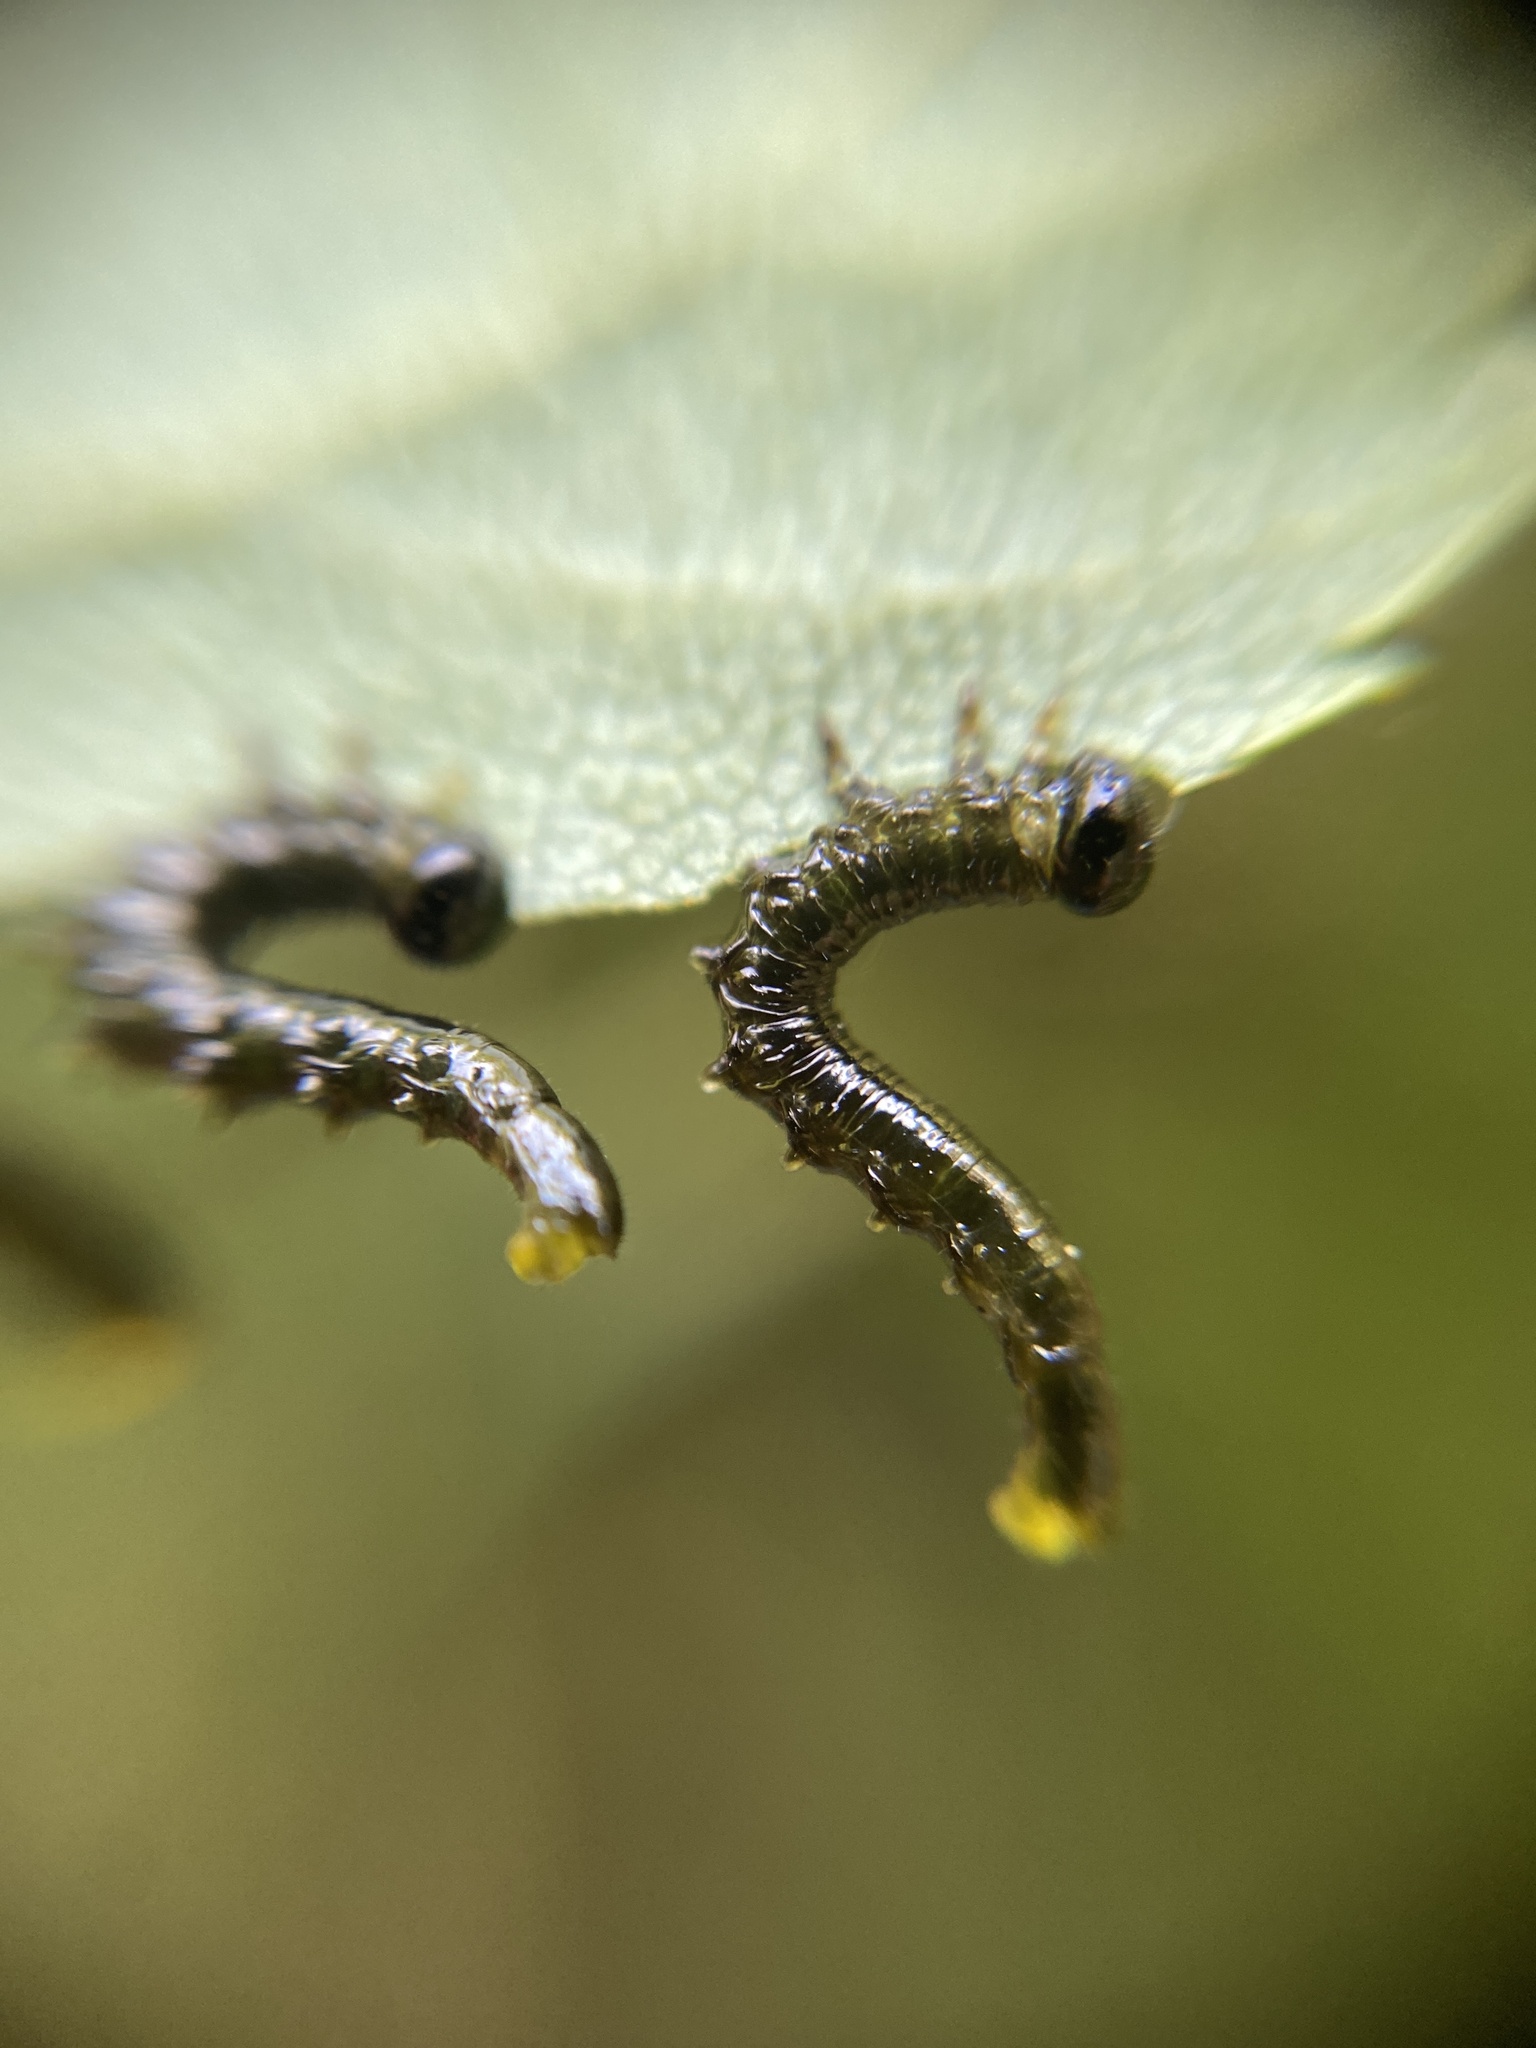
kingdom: Animalia
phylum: Arthropoda
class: Insecta
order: Hymenoptera
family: Tenthredinidae
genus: Craesus
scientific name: Craesus latipes
